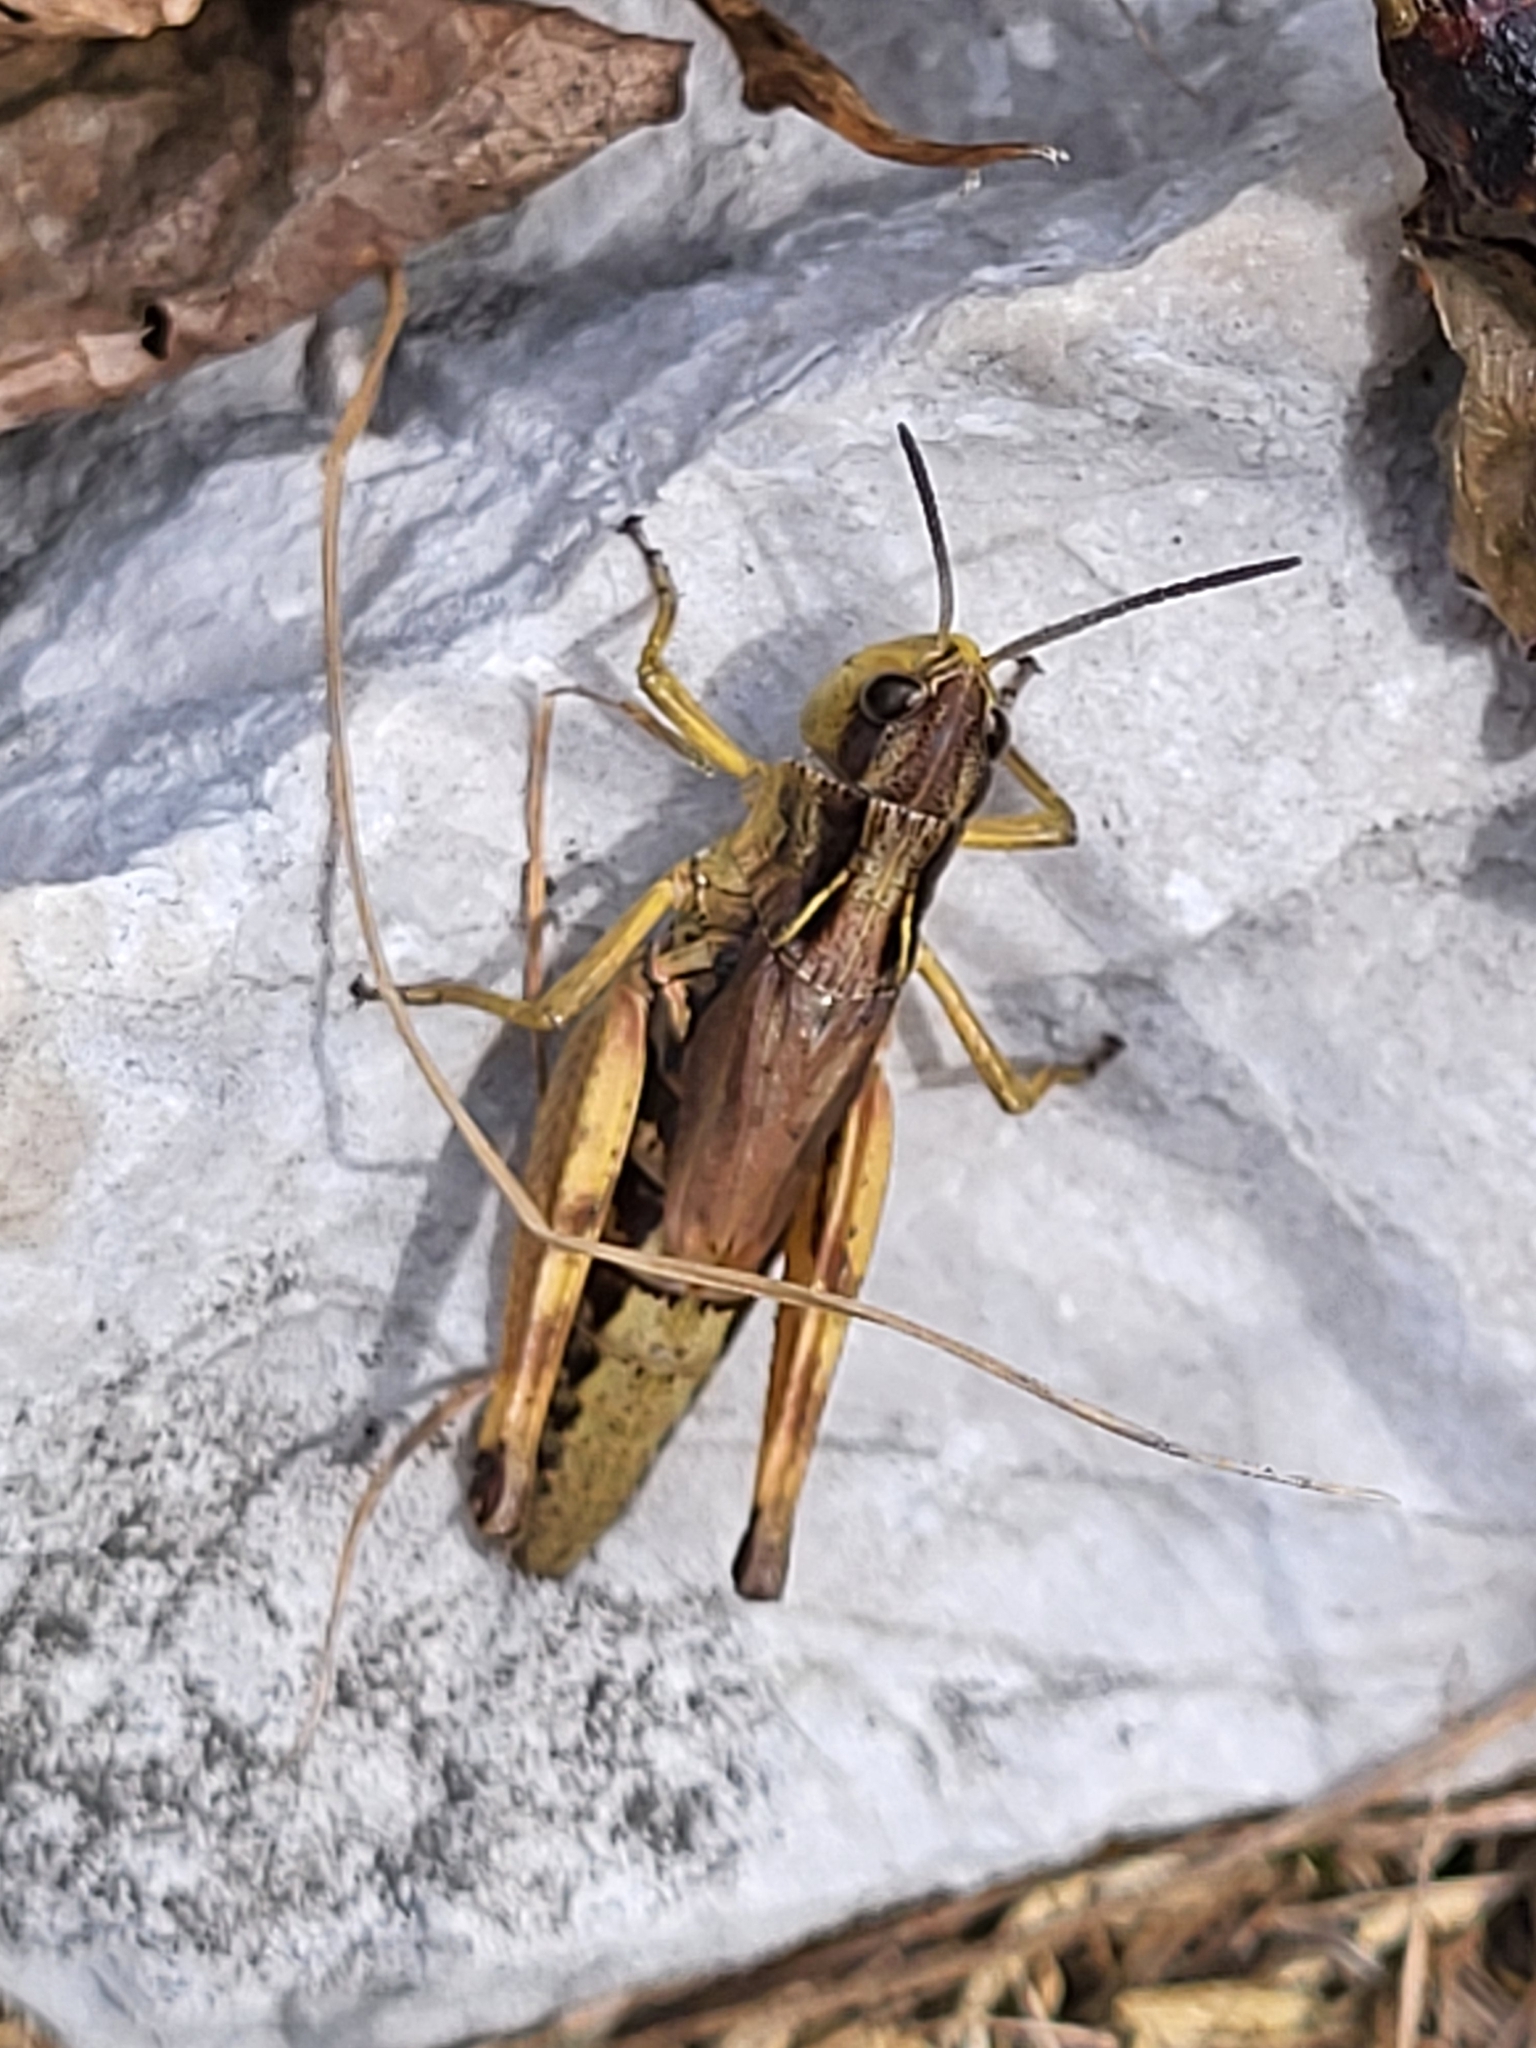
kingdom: Animalia
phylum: Arthropoda
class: Insecta
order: Orthoptera
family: Acrididae
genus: Chorthippus
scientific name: Chorthippus alticola
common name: Alpine grasshopper
